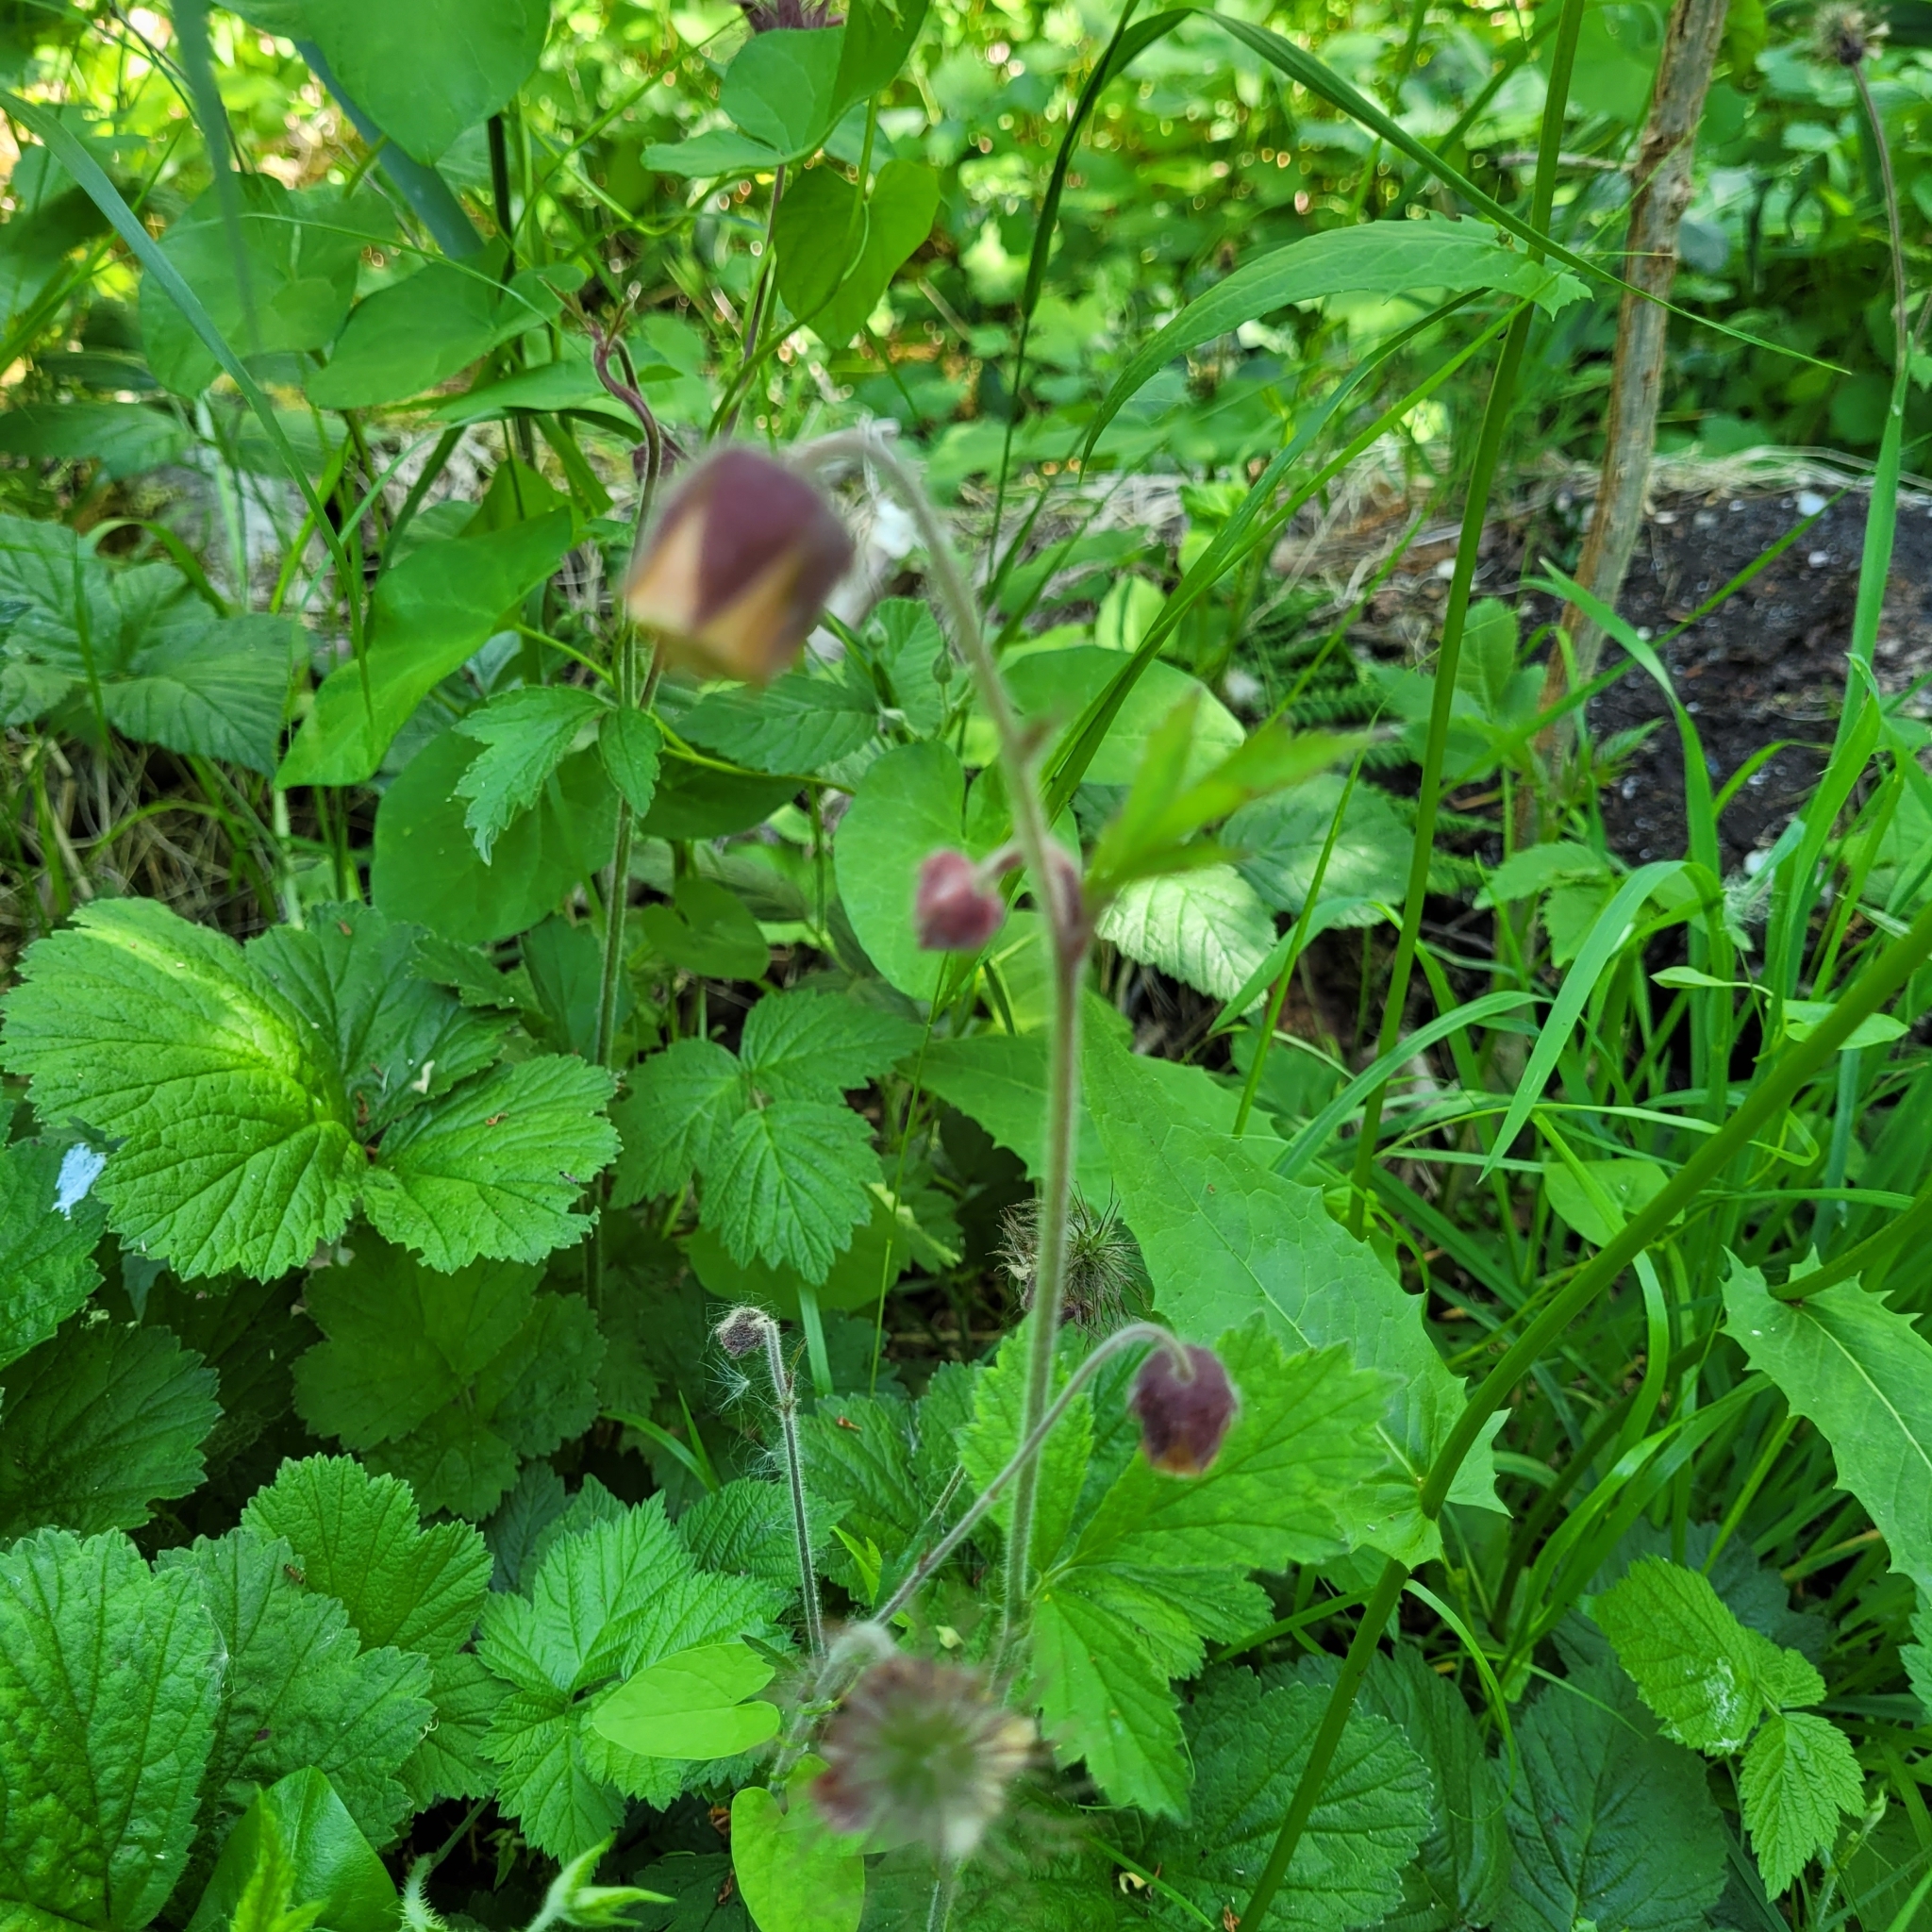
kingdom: Plantae
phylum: Tracheophyta
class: Magnoliopsida
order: Rosales
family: Rosaceae
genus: Geum
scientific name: Geum rivale
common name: Water avens
